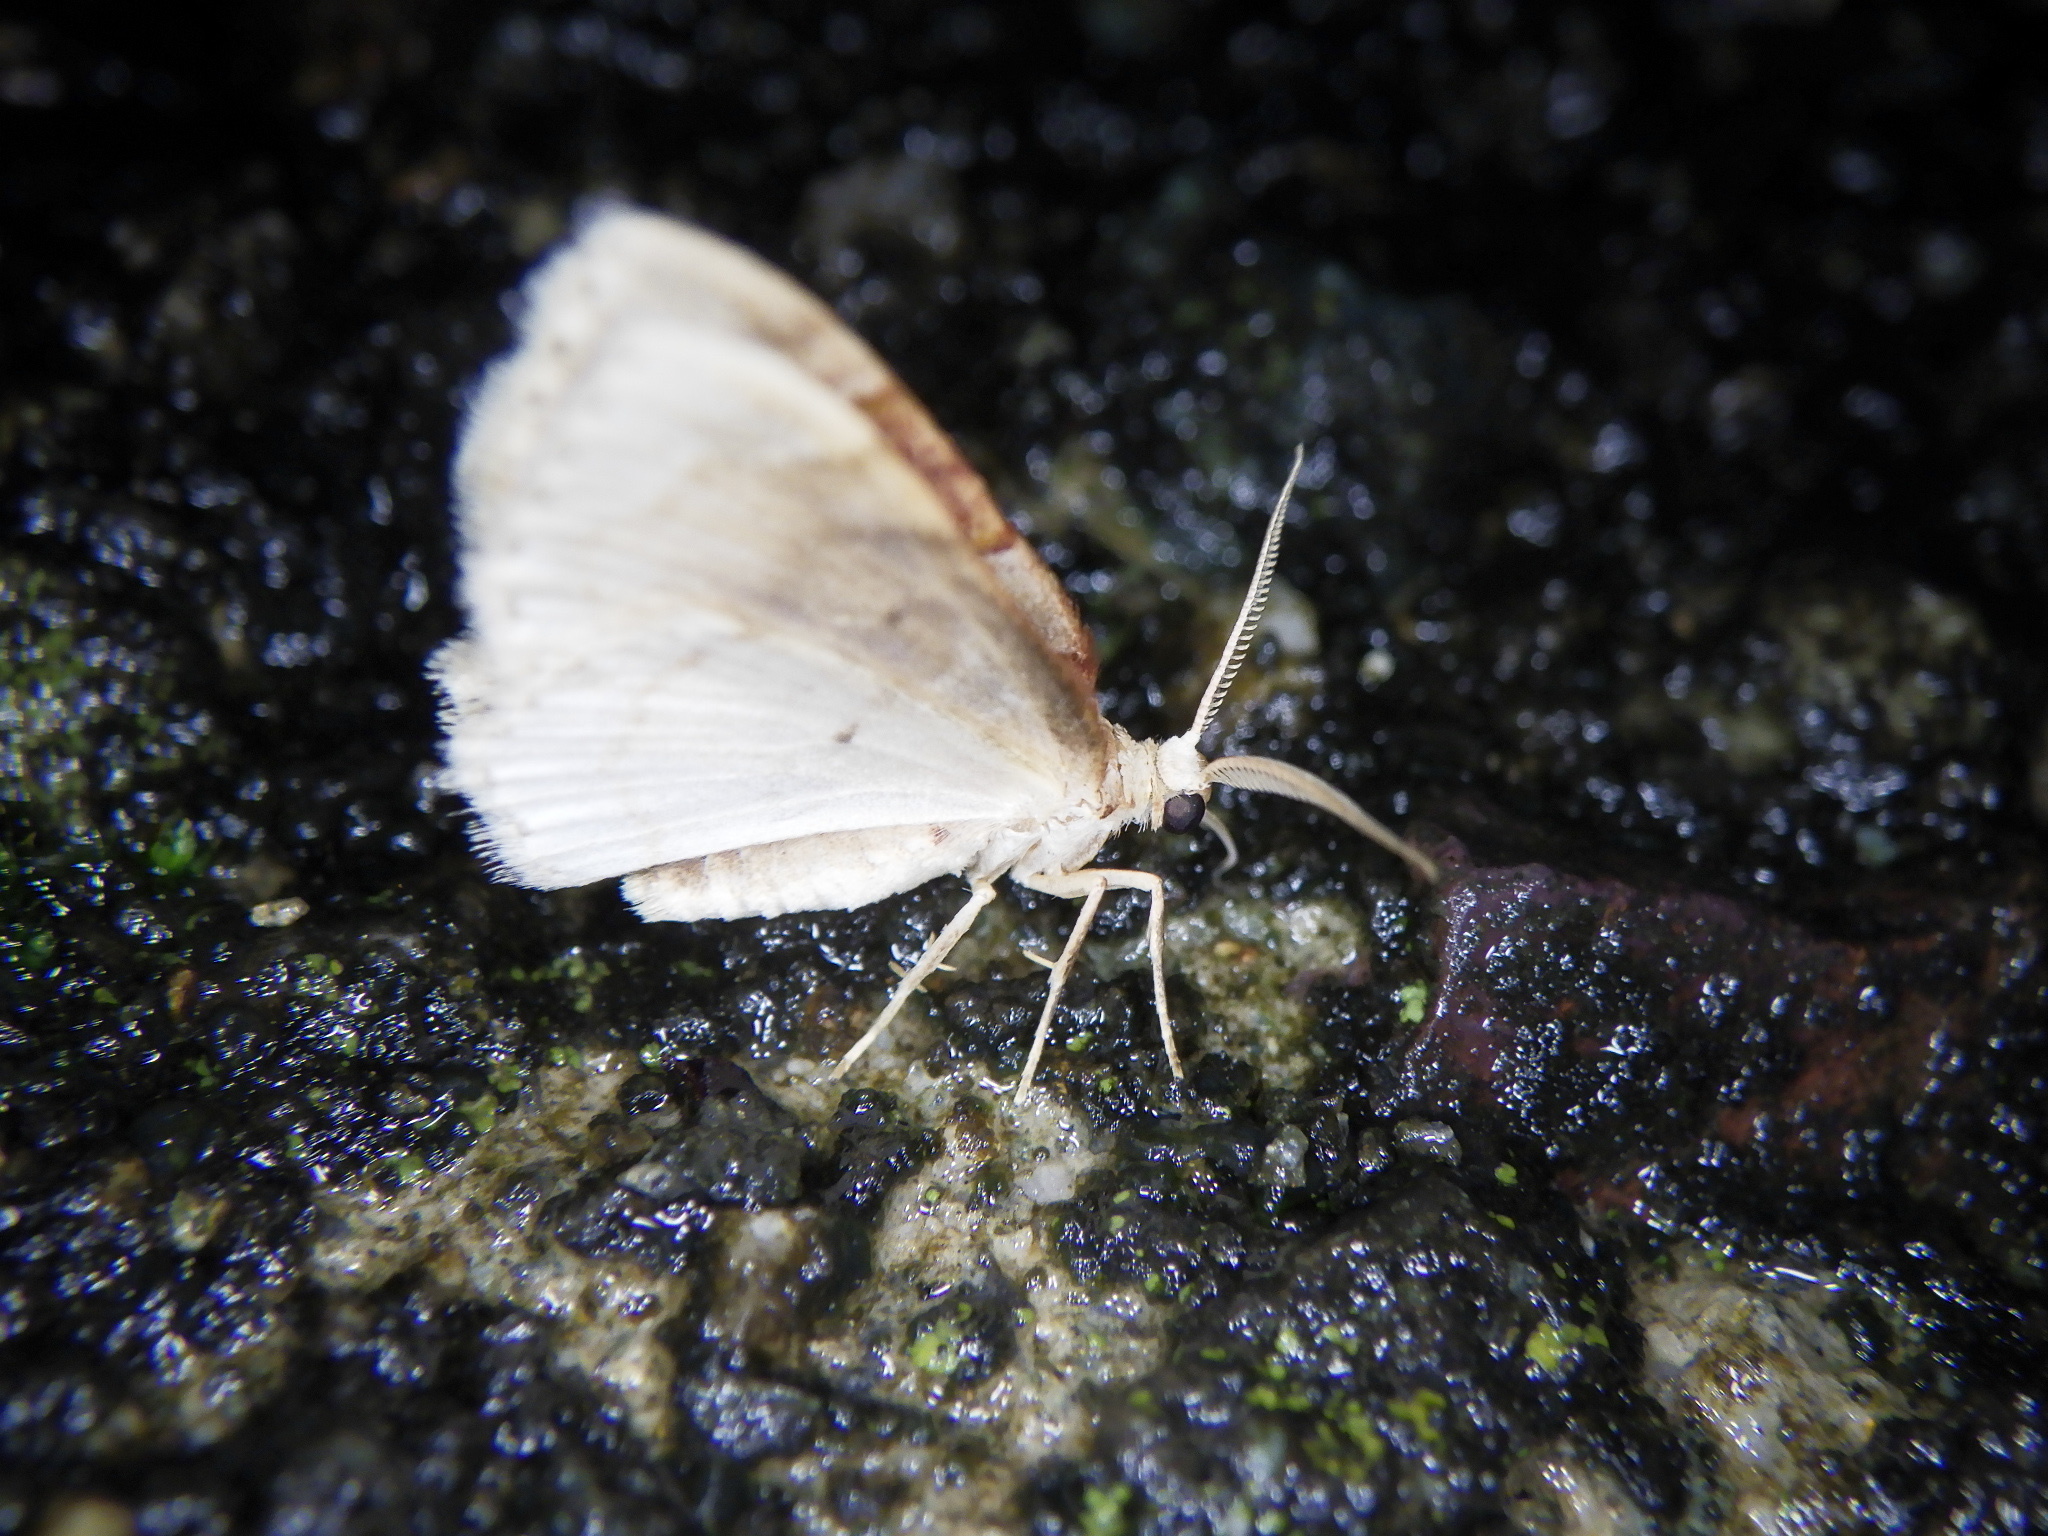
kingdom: Animalia
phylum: Arthropoda
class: Insecta
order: Lepidoptera
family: Geometridae
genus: Palpoctenidia
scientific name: Palpoctenidia phoenicosoma
